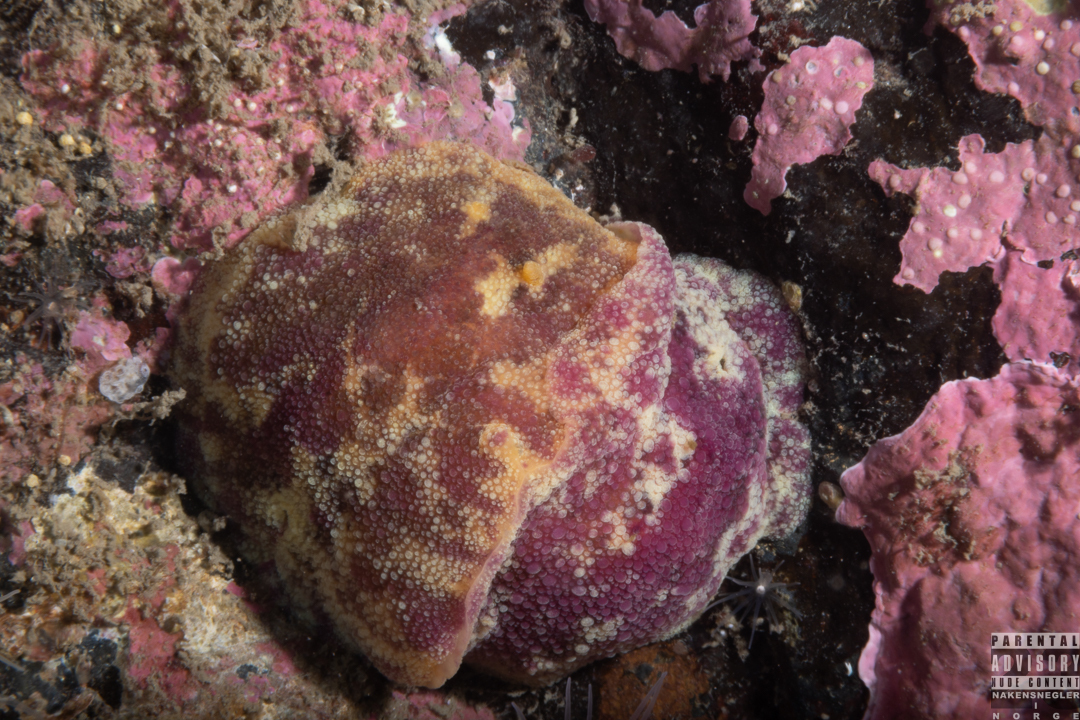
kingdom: Animalia
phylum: Mollusca
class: Gastropoda
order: Nudibranchia
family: Dorididae
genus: Doris
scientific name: Doris pseudoargus
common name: Sea lemon
